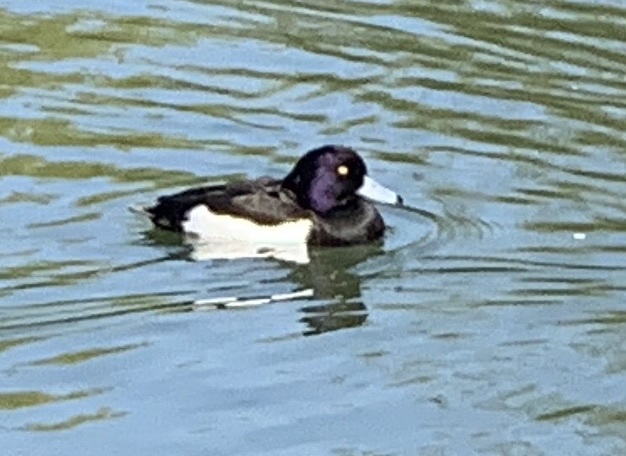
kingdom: Animalia
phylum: Chordata
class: Aves
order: Anseriformes
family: Anatidae
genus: Aythya
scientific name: Aythya fuligula
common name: Tufted duck
